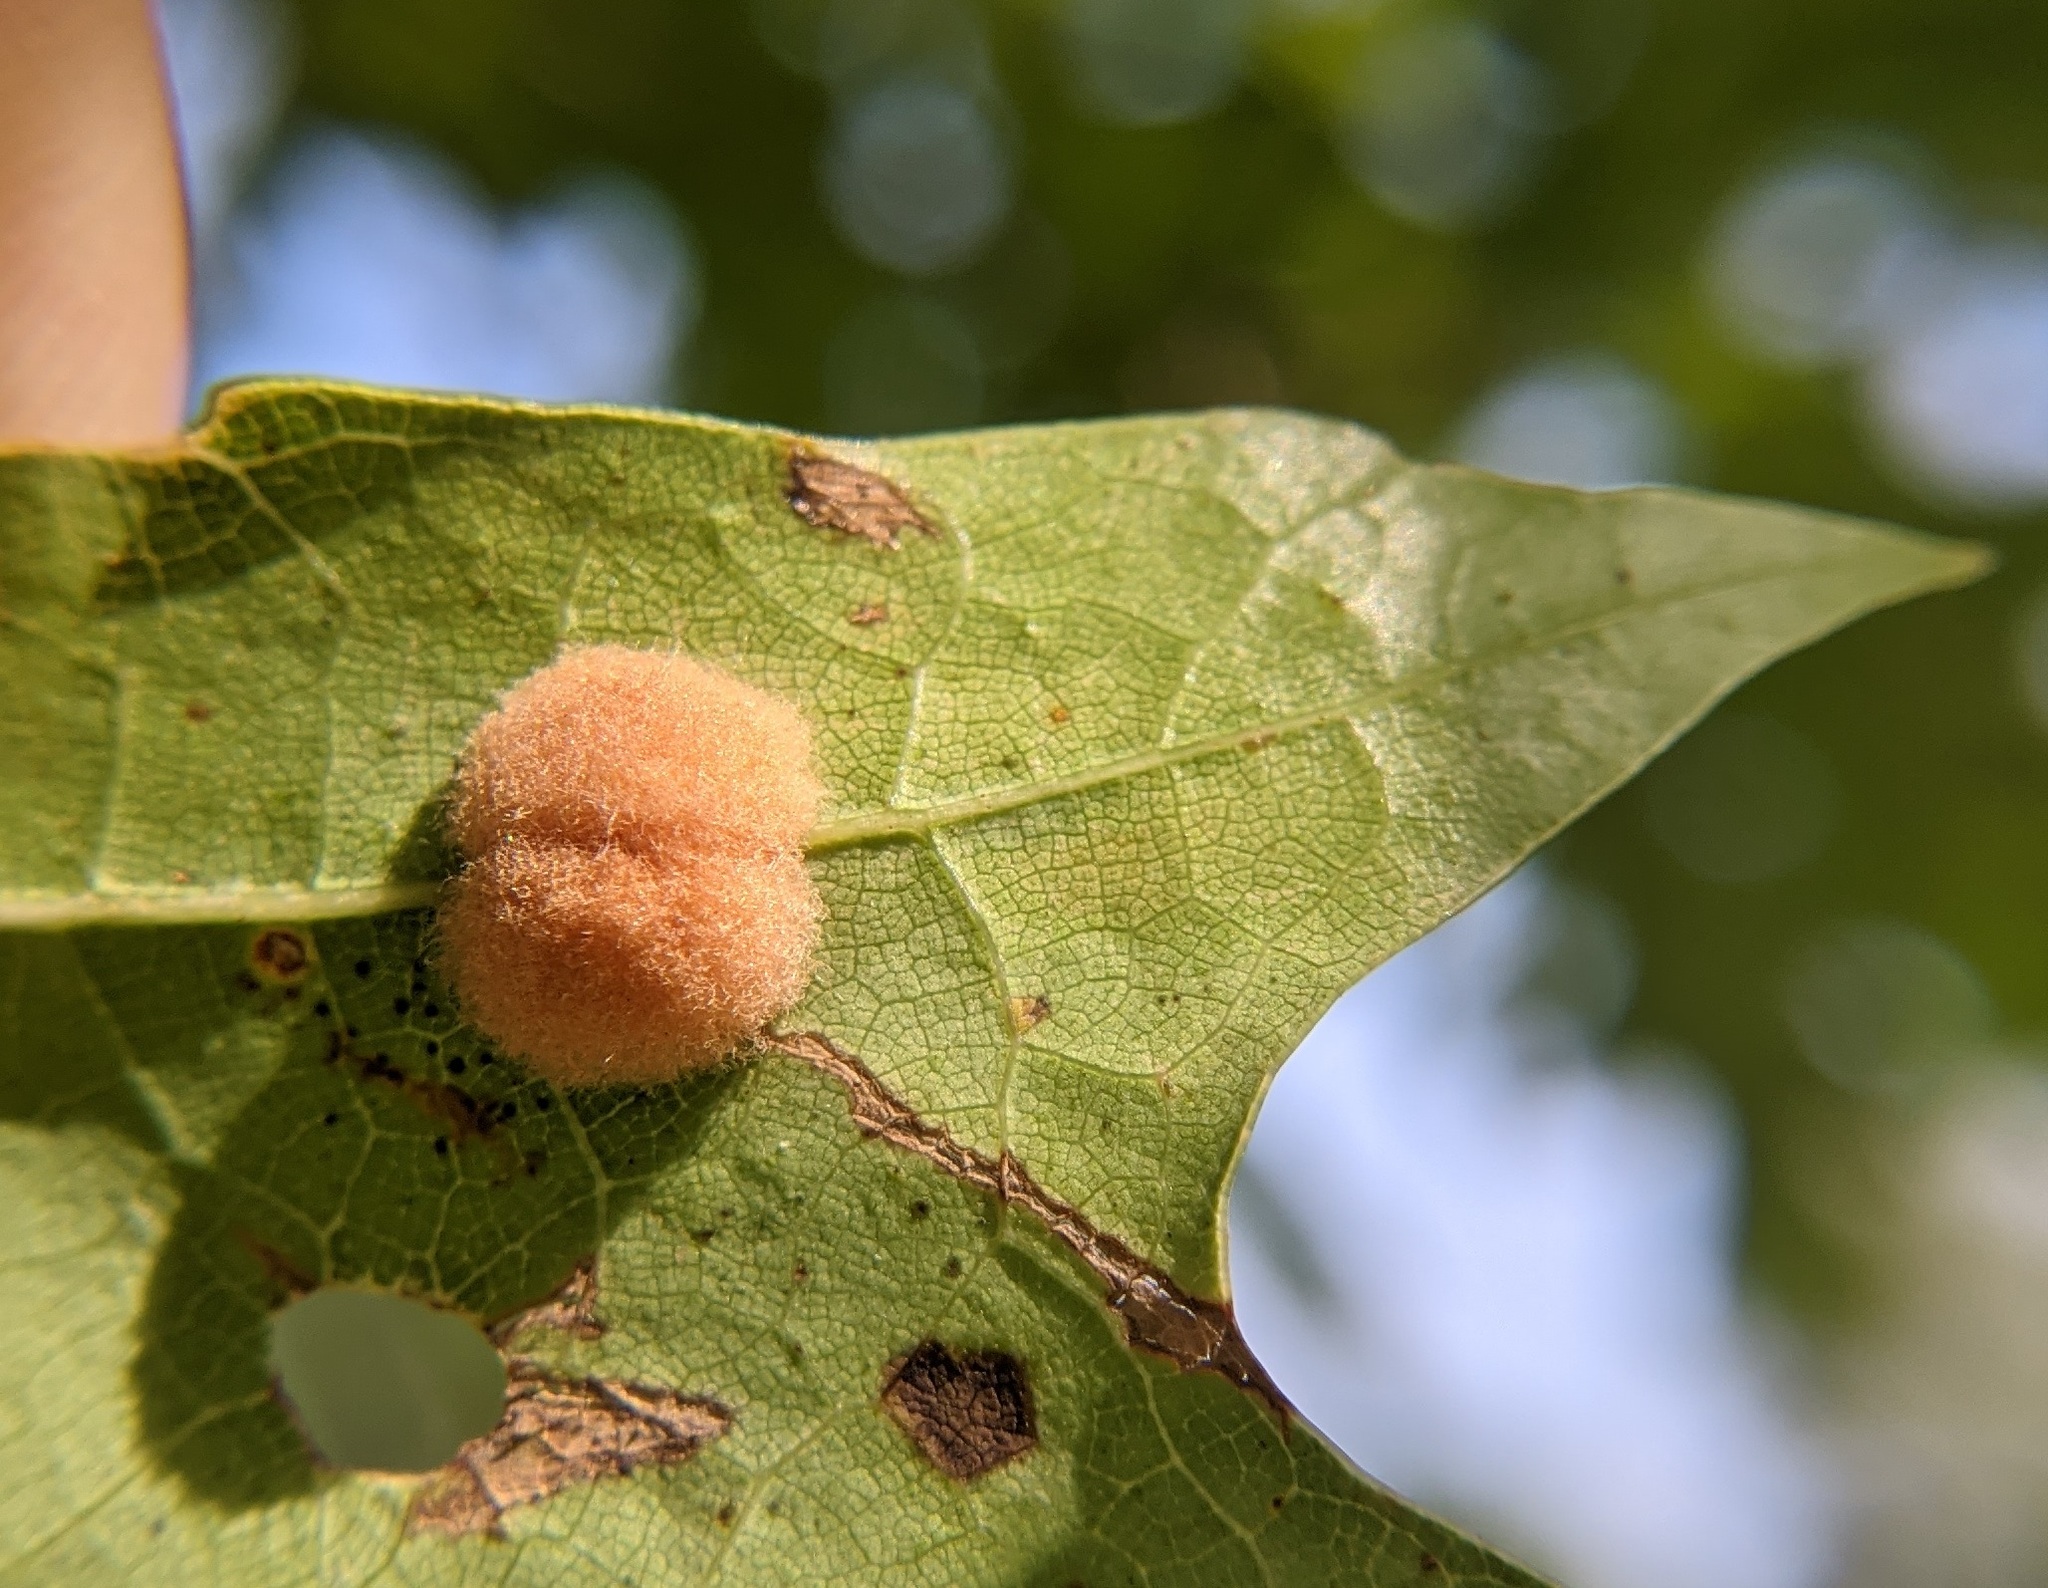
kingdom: Animalia
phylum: Arthropoda
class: Insecta
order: Hymenoptera
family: Cynipidae
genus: Callirhytis
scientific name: Callirhytis
